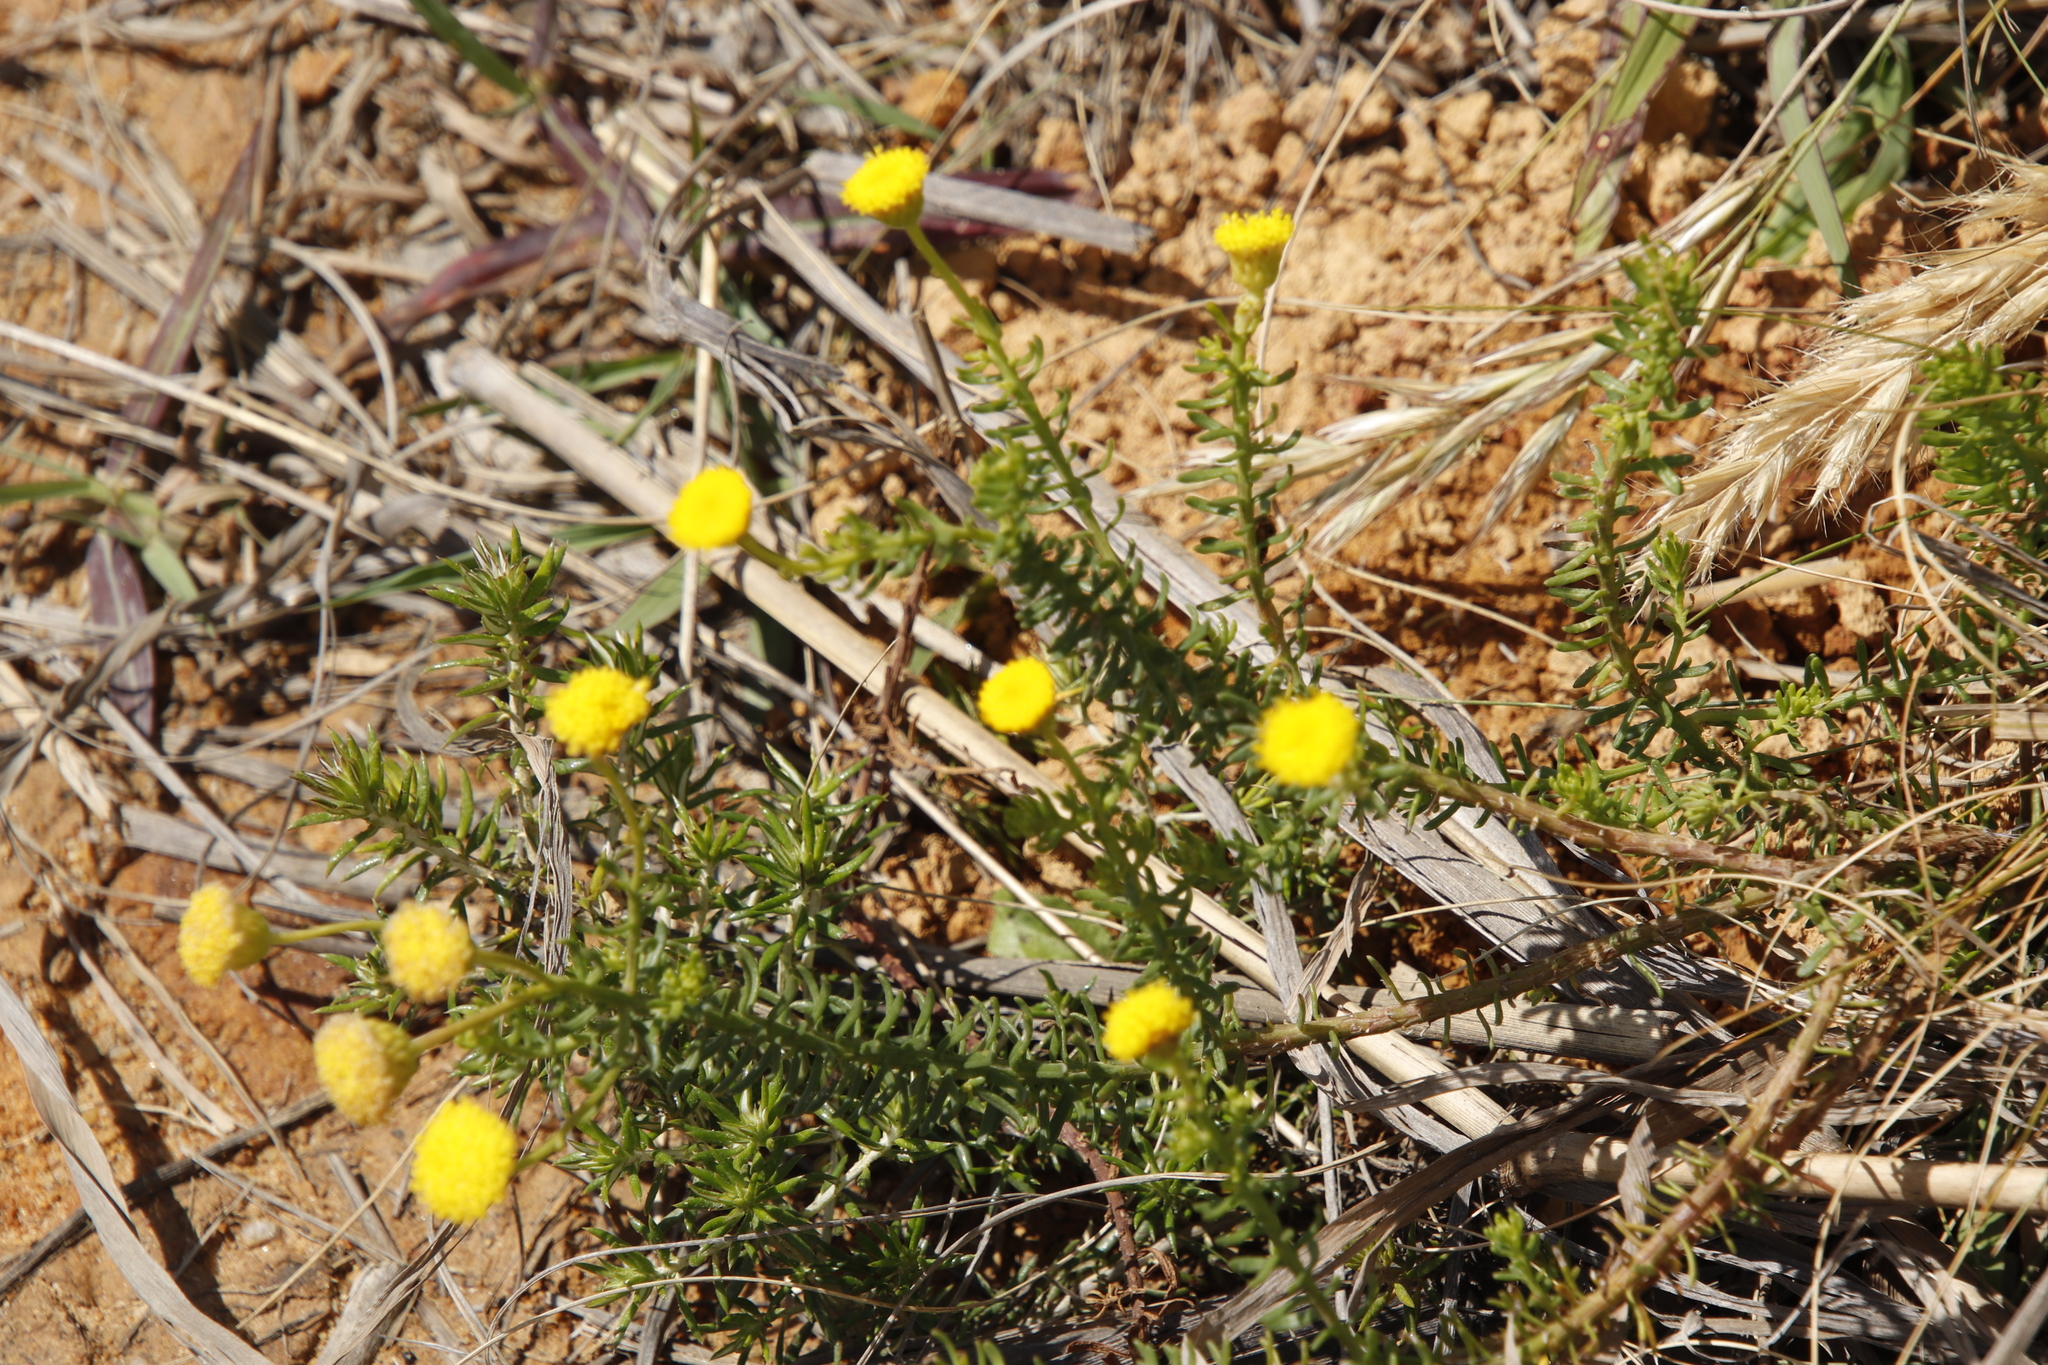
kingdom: Plantae
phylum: Tracheophyta
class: Magnoliopsida
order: Asterales
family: Asteraceae
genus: Chrysocoma
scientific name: Chrysocoma cernua
